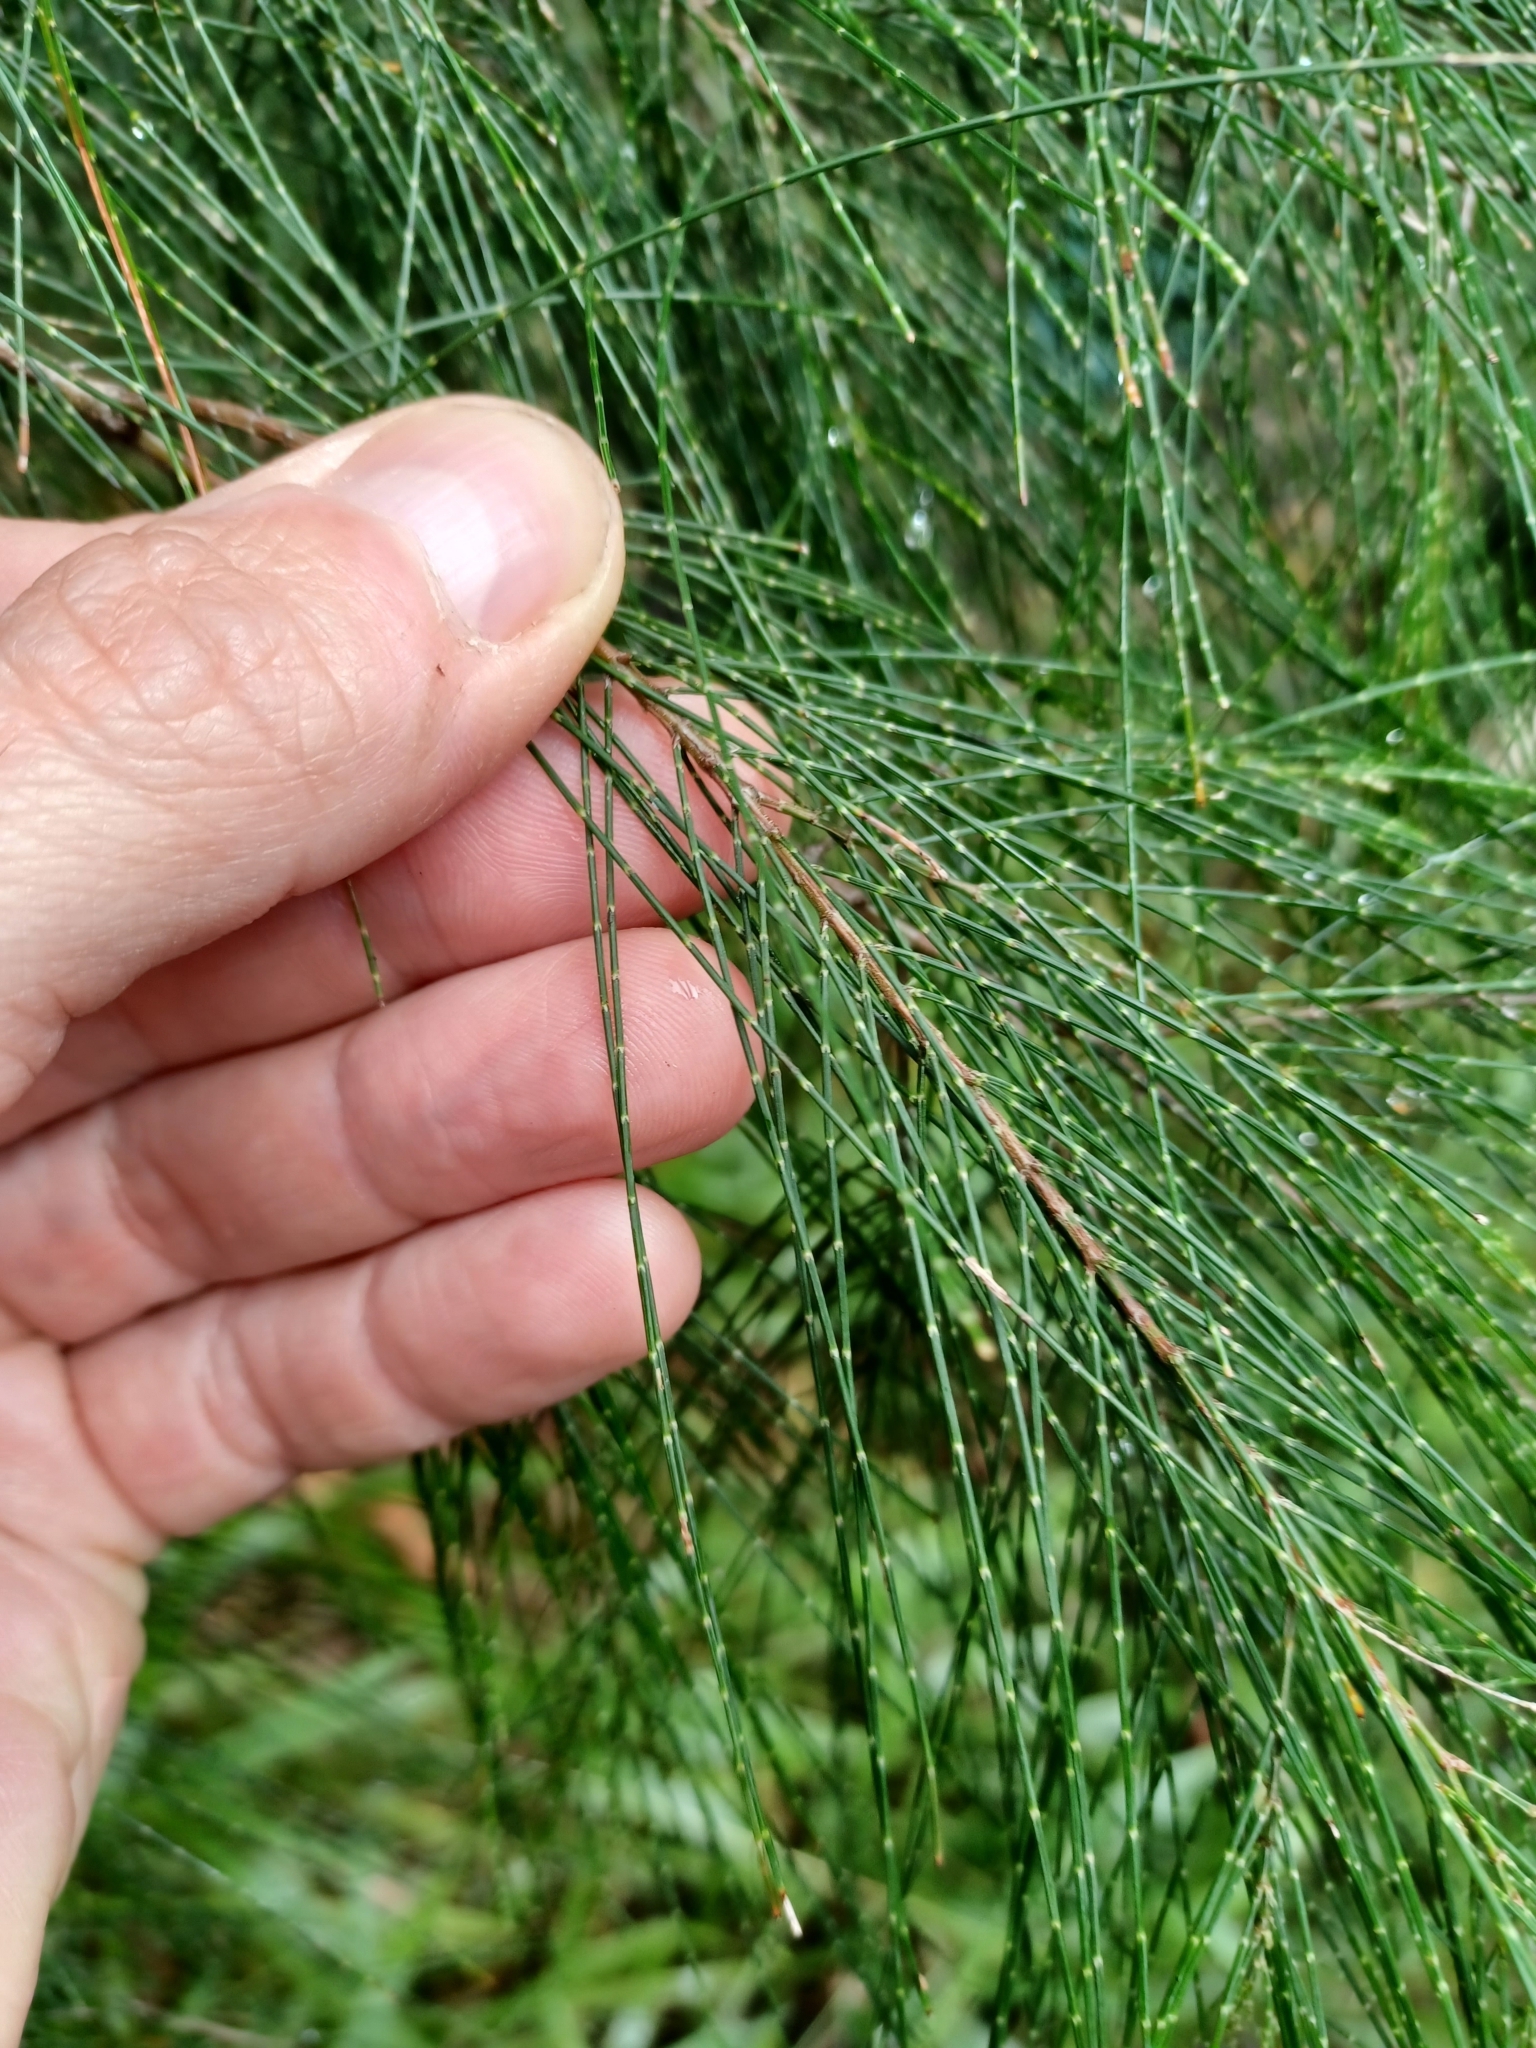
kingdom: Plantae
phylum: Tracheophyta
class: Magnoliopsida
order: Fagales
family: Casuarinaceae
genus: Allocasuarina
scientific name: Allocasuarina torulosa
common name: Forest-oak
